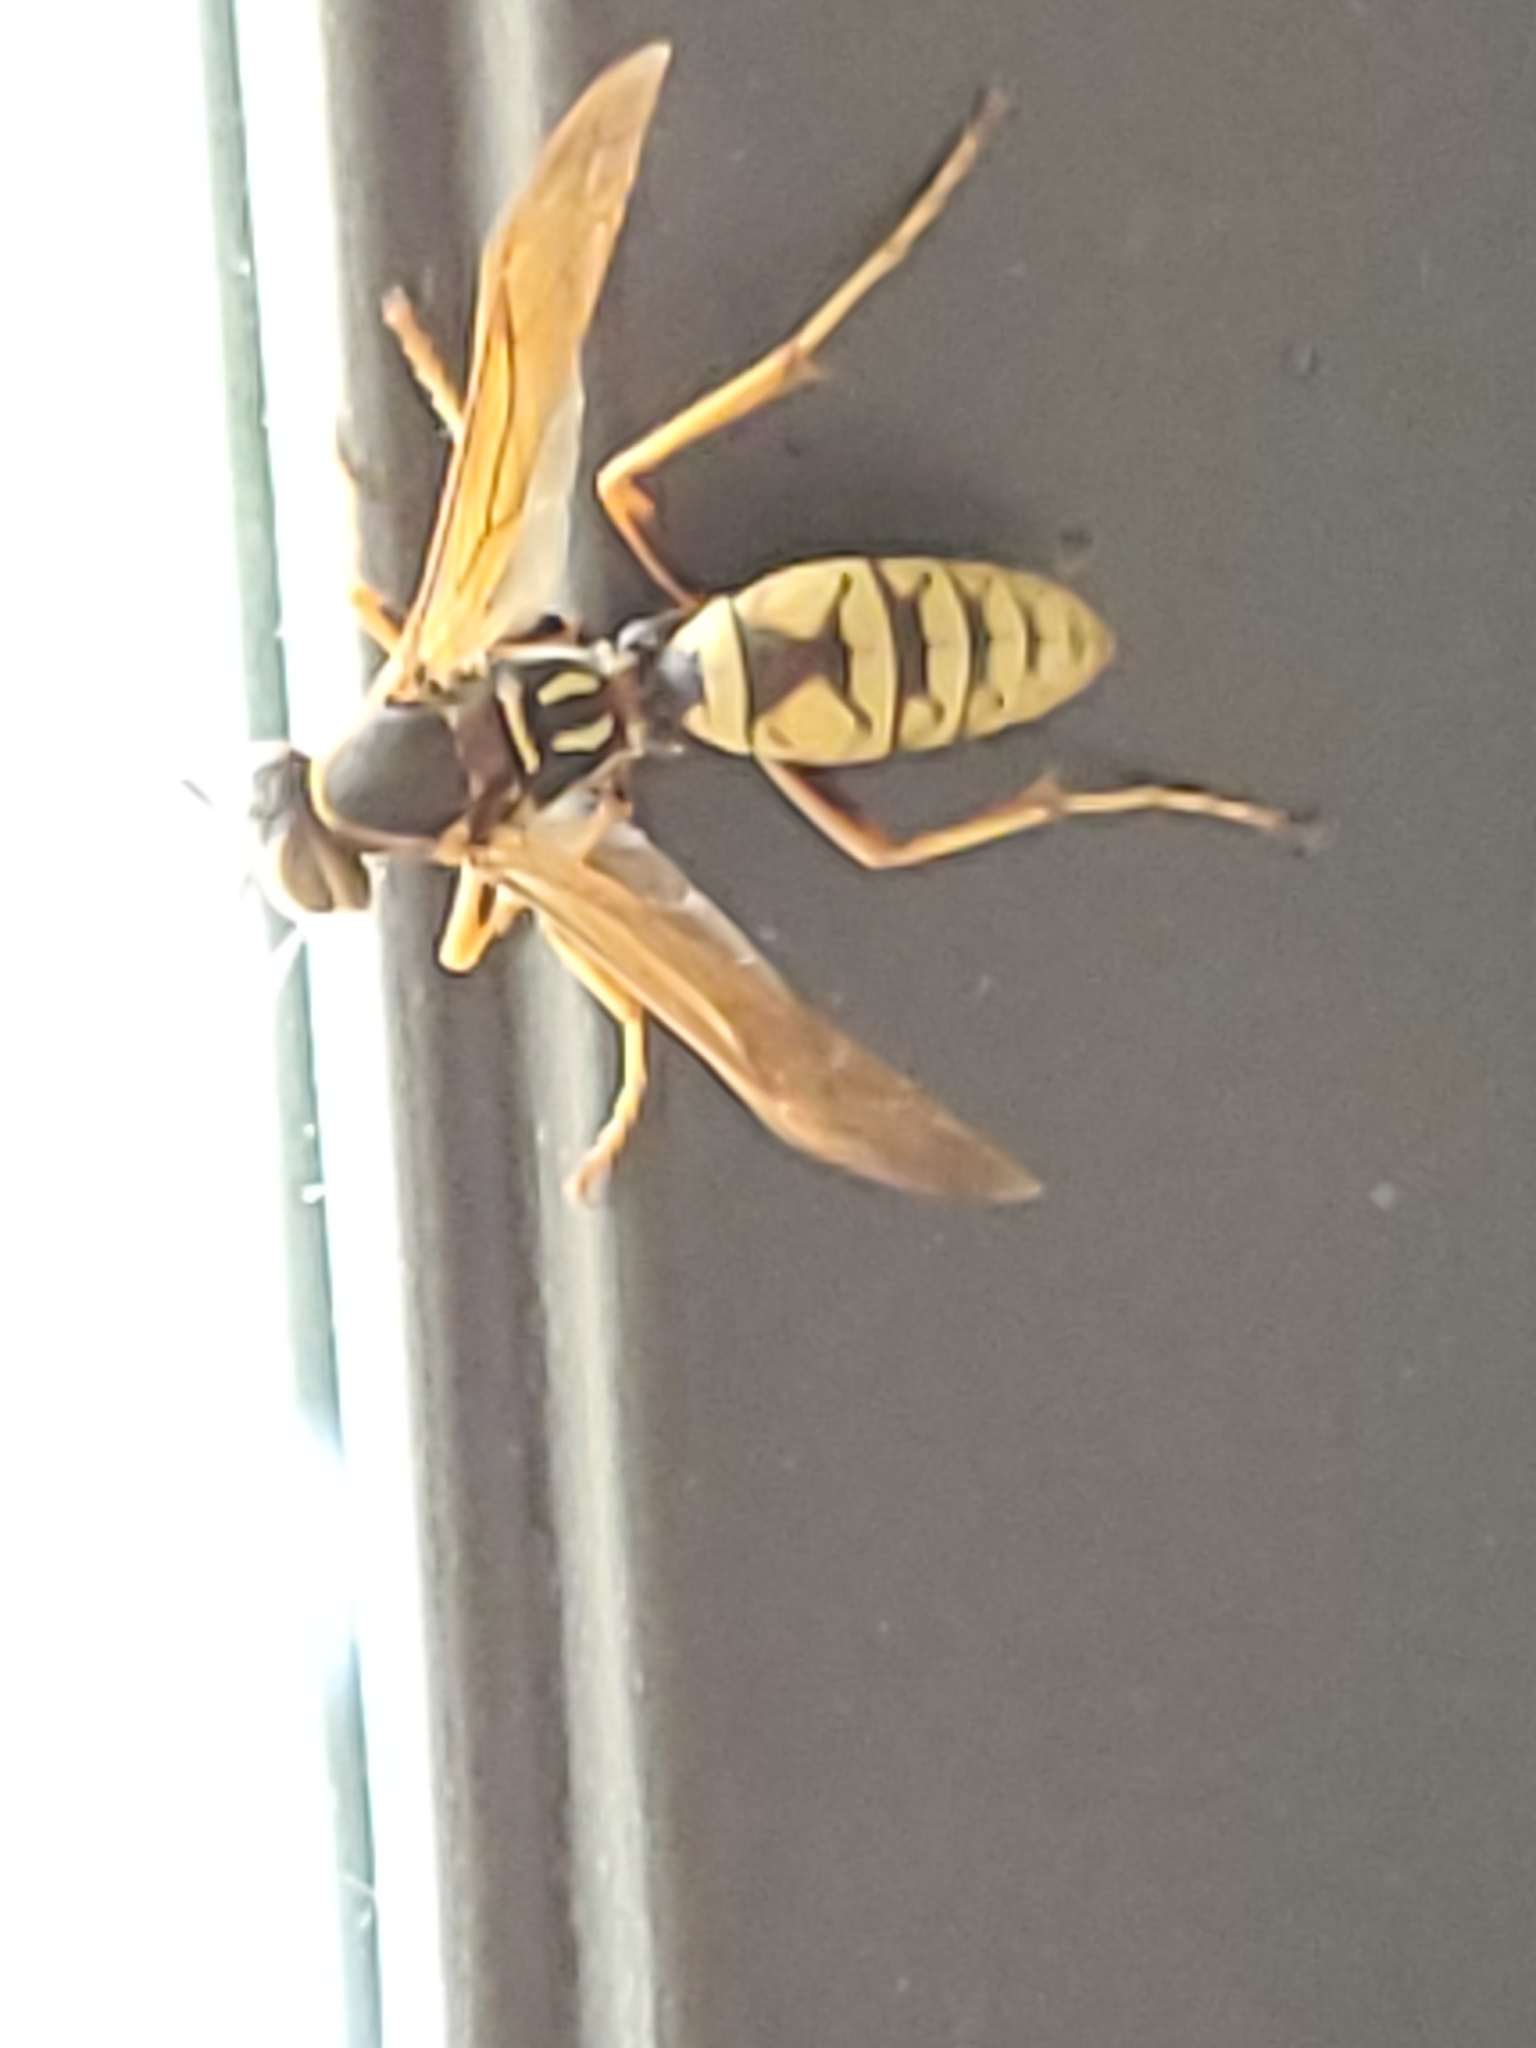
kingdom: Animalia
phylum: Arthropoda
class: Insecta
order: Hymenoptera
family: Eumenidae
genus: Polistes
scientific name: Polistes aurifer
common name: Paper wasp
